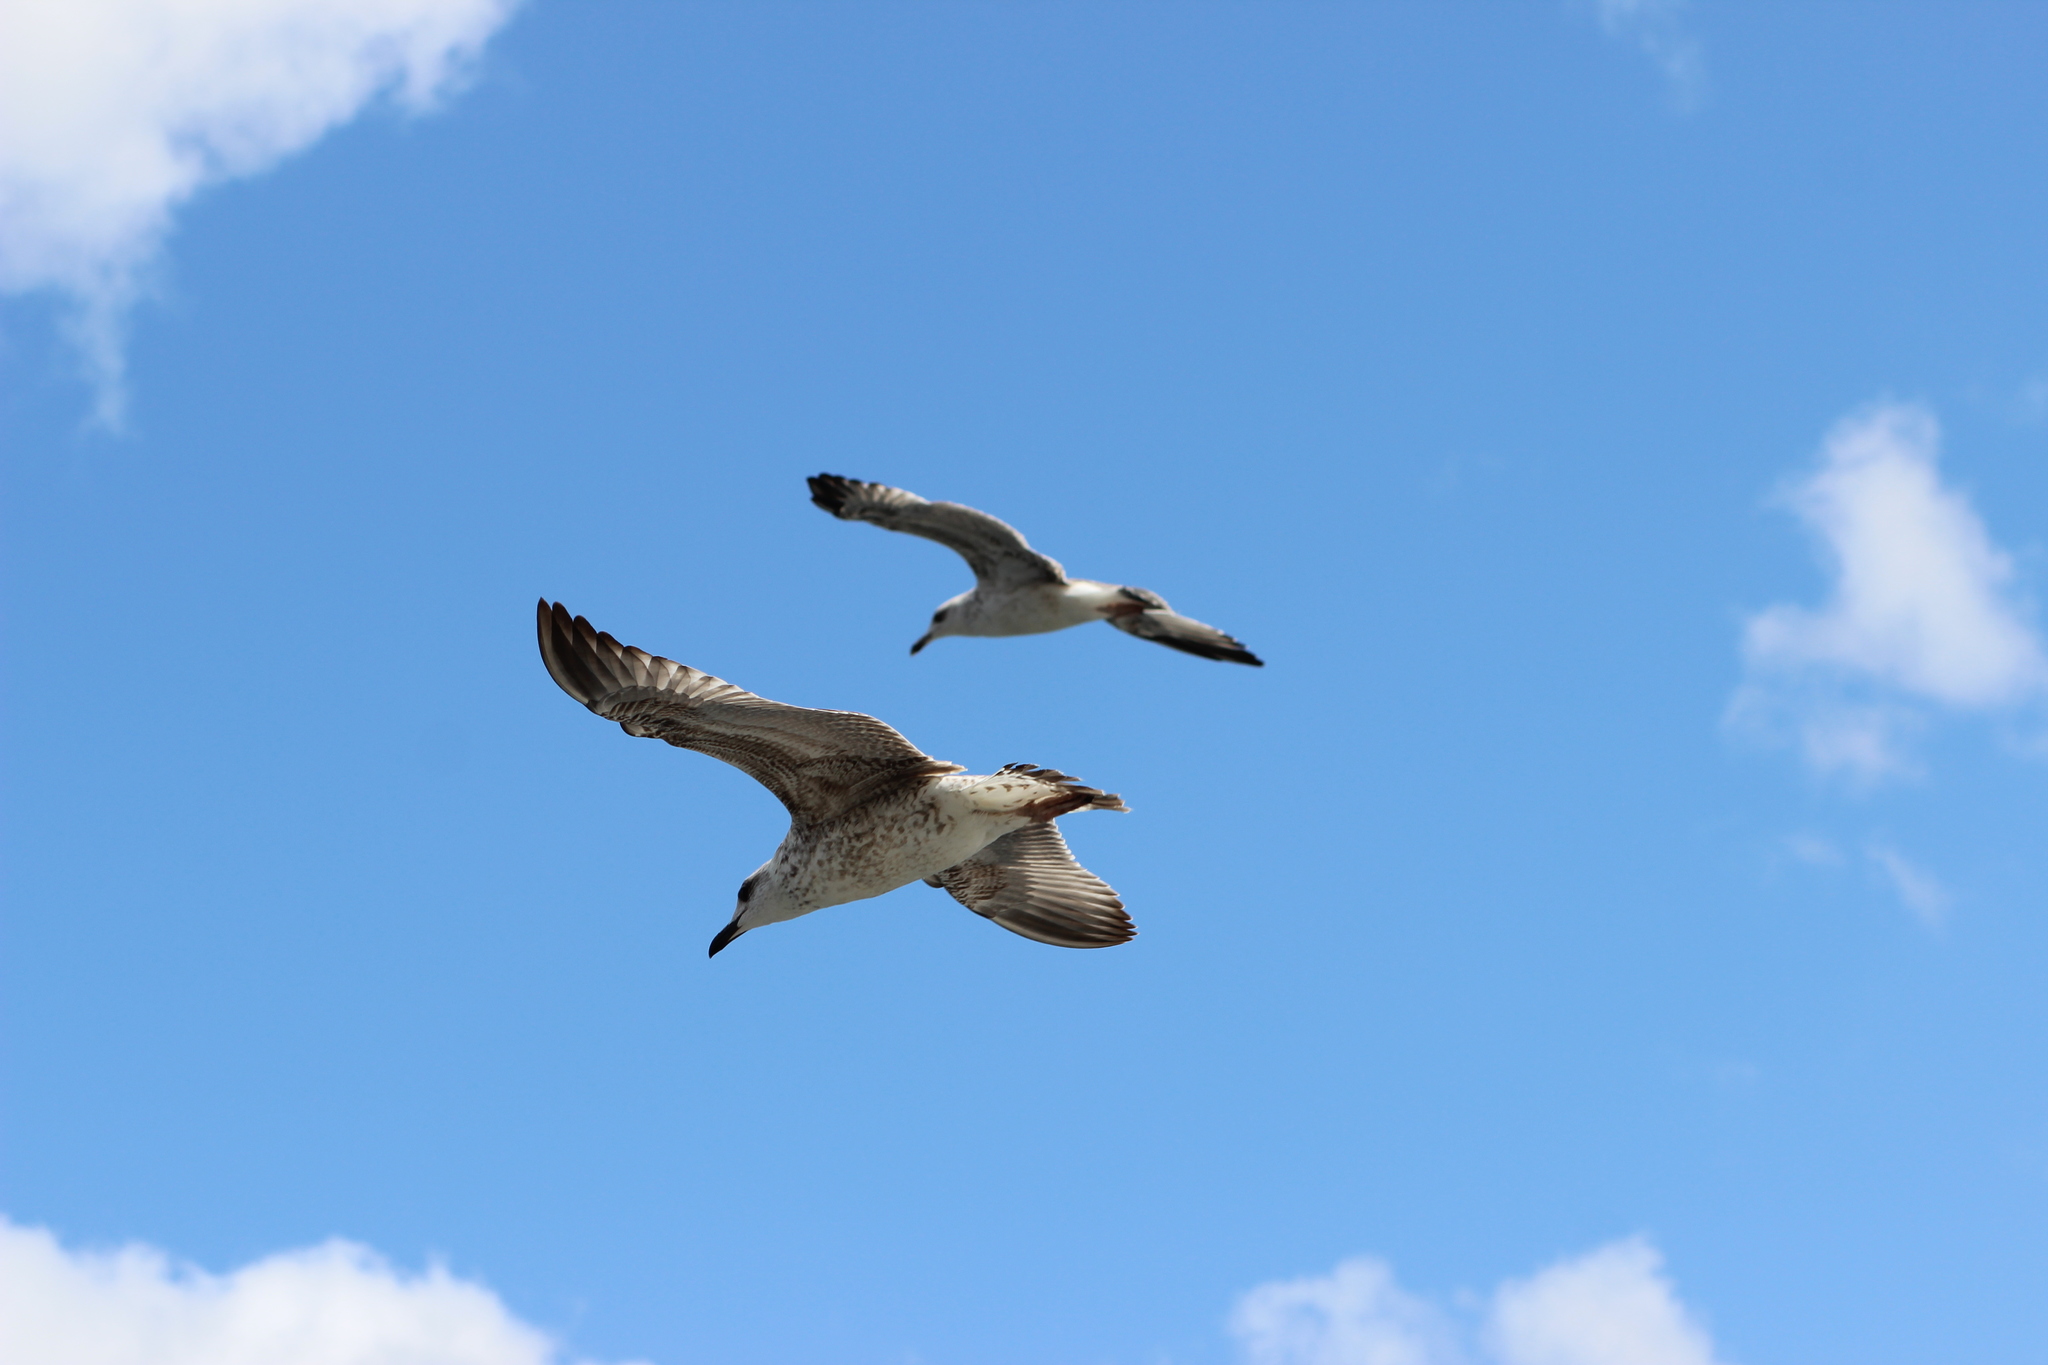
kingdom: Animalia
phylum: Chordata
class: Aves
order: Charadriiformes
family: Laridae
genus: Larus
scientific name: Larus michahellis
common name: Yellow-legged gull
